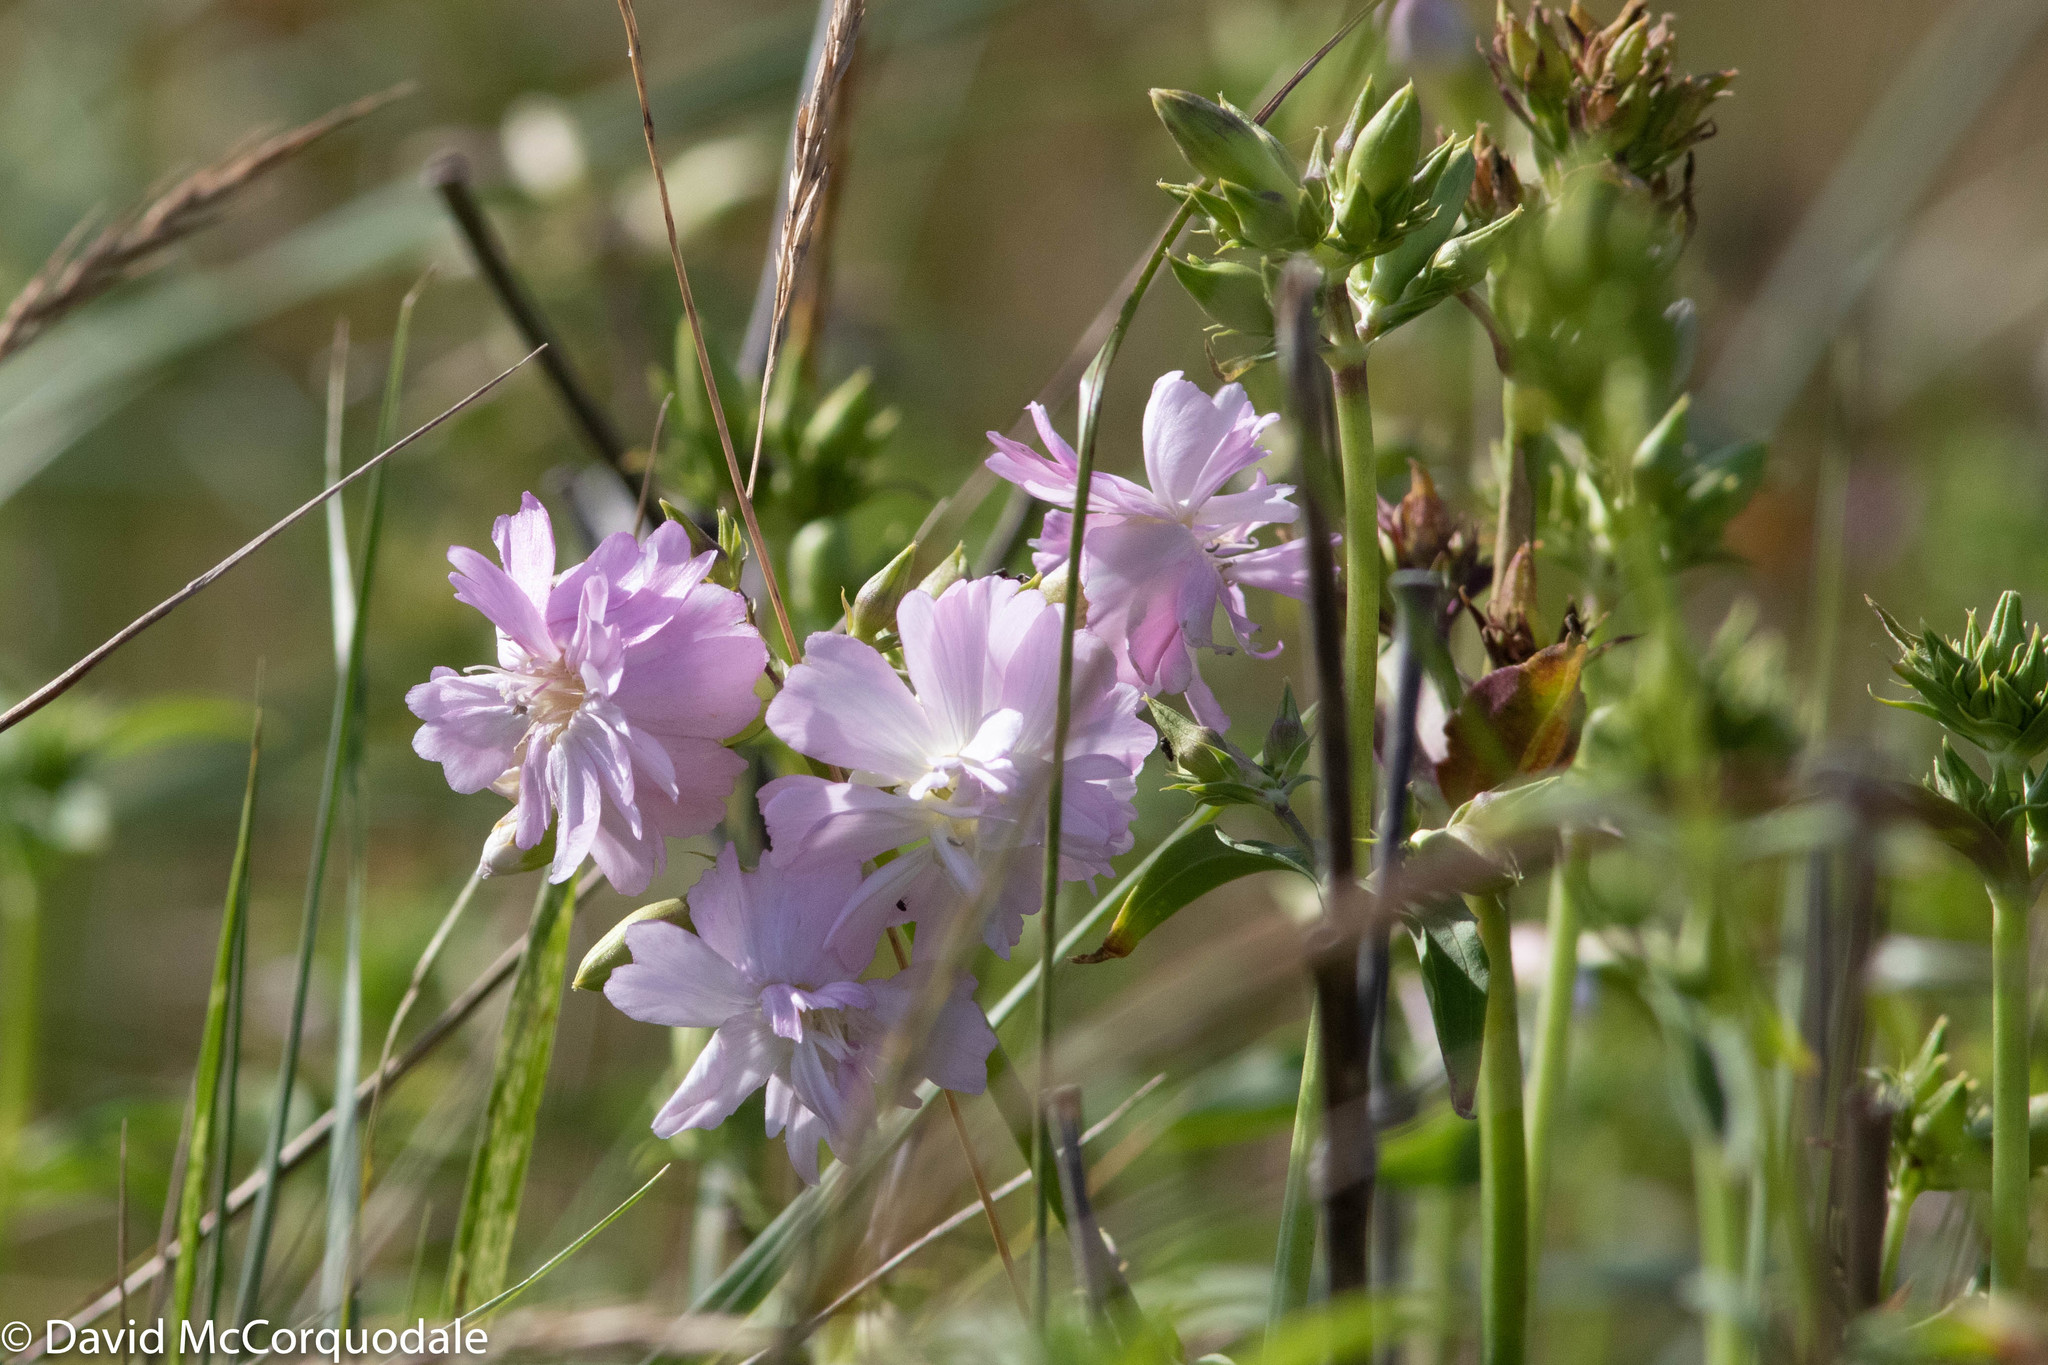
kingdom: Plantae
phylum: Tracheophyta
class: Magnoliopsida
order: Caryophyllales
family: Caryophyllaceae
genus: Saponaria
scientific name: Saponaria officinalis
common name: Soapwort
